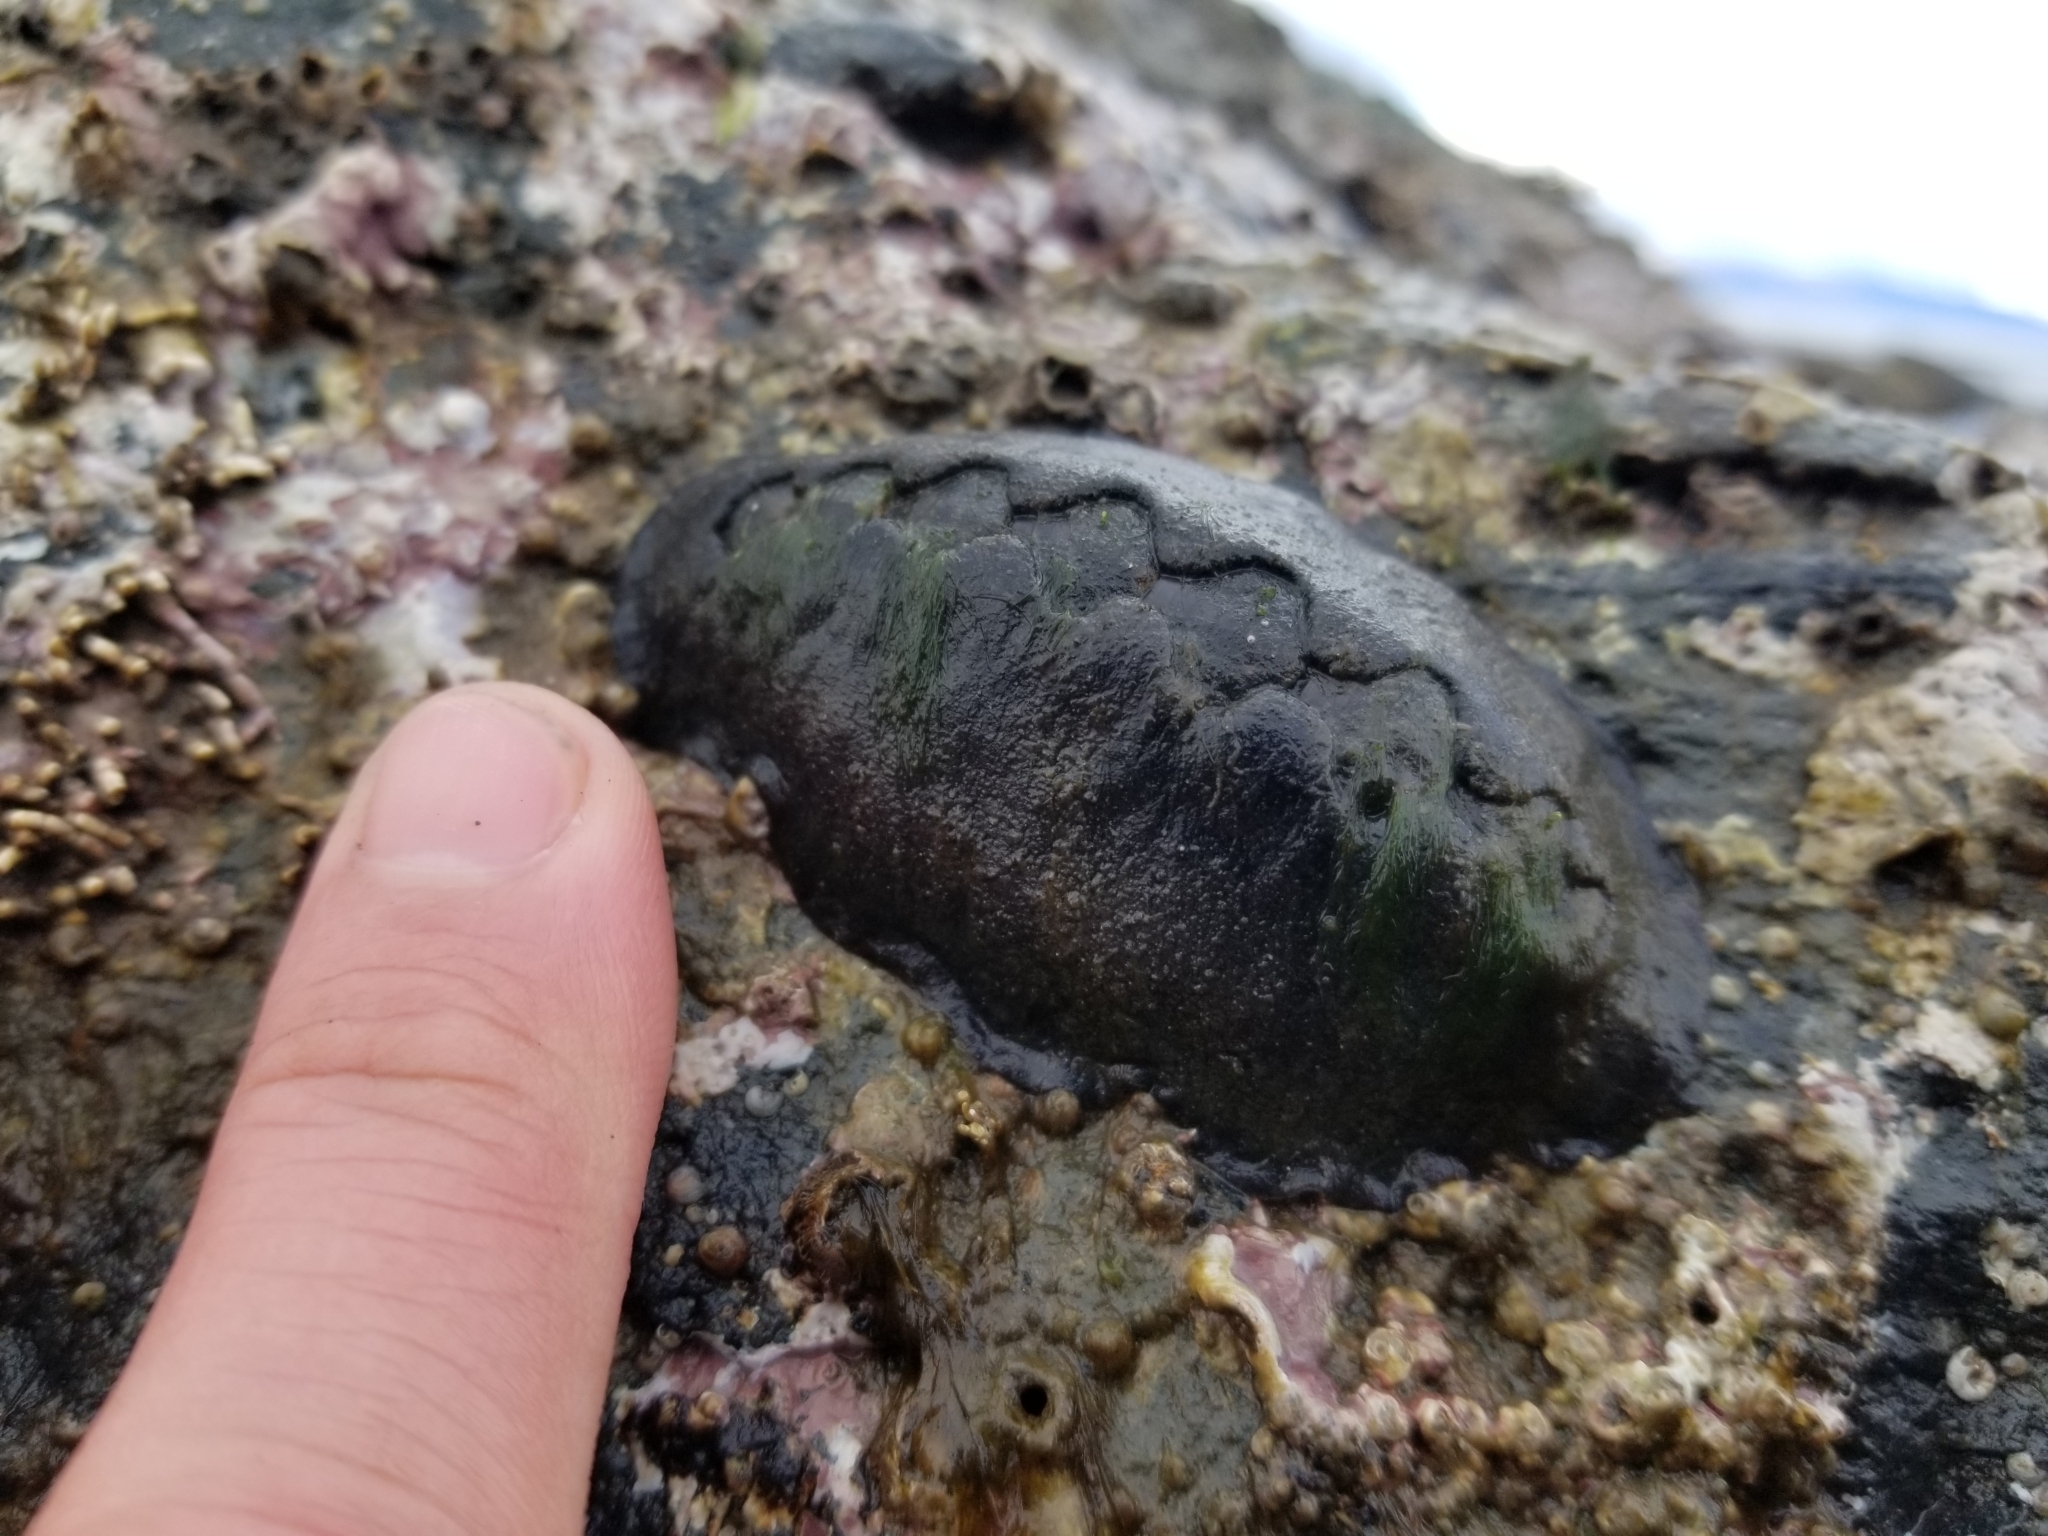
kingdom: Animalia
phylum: Mollusca
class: Polyplacophora
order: Chitonida
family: Mopaliidae
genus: Katharina
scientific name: Katharina tunicata
